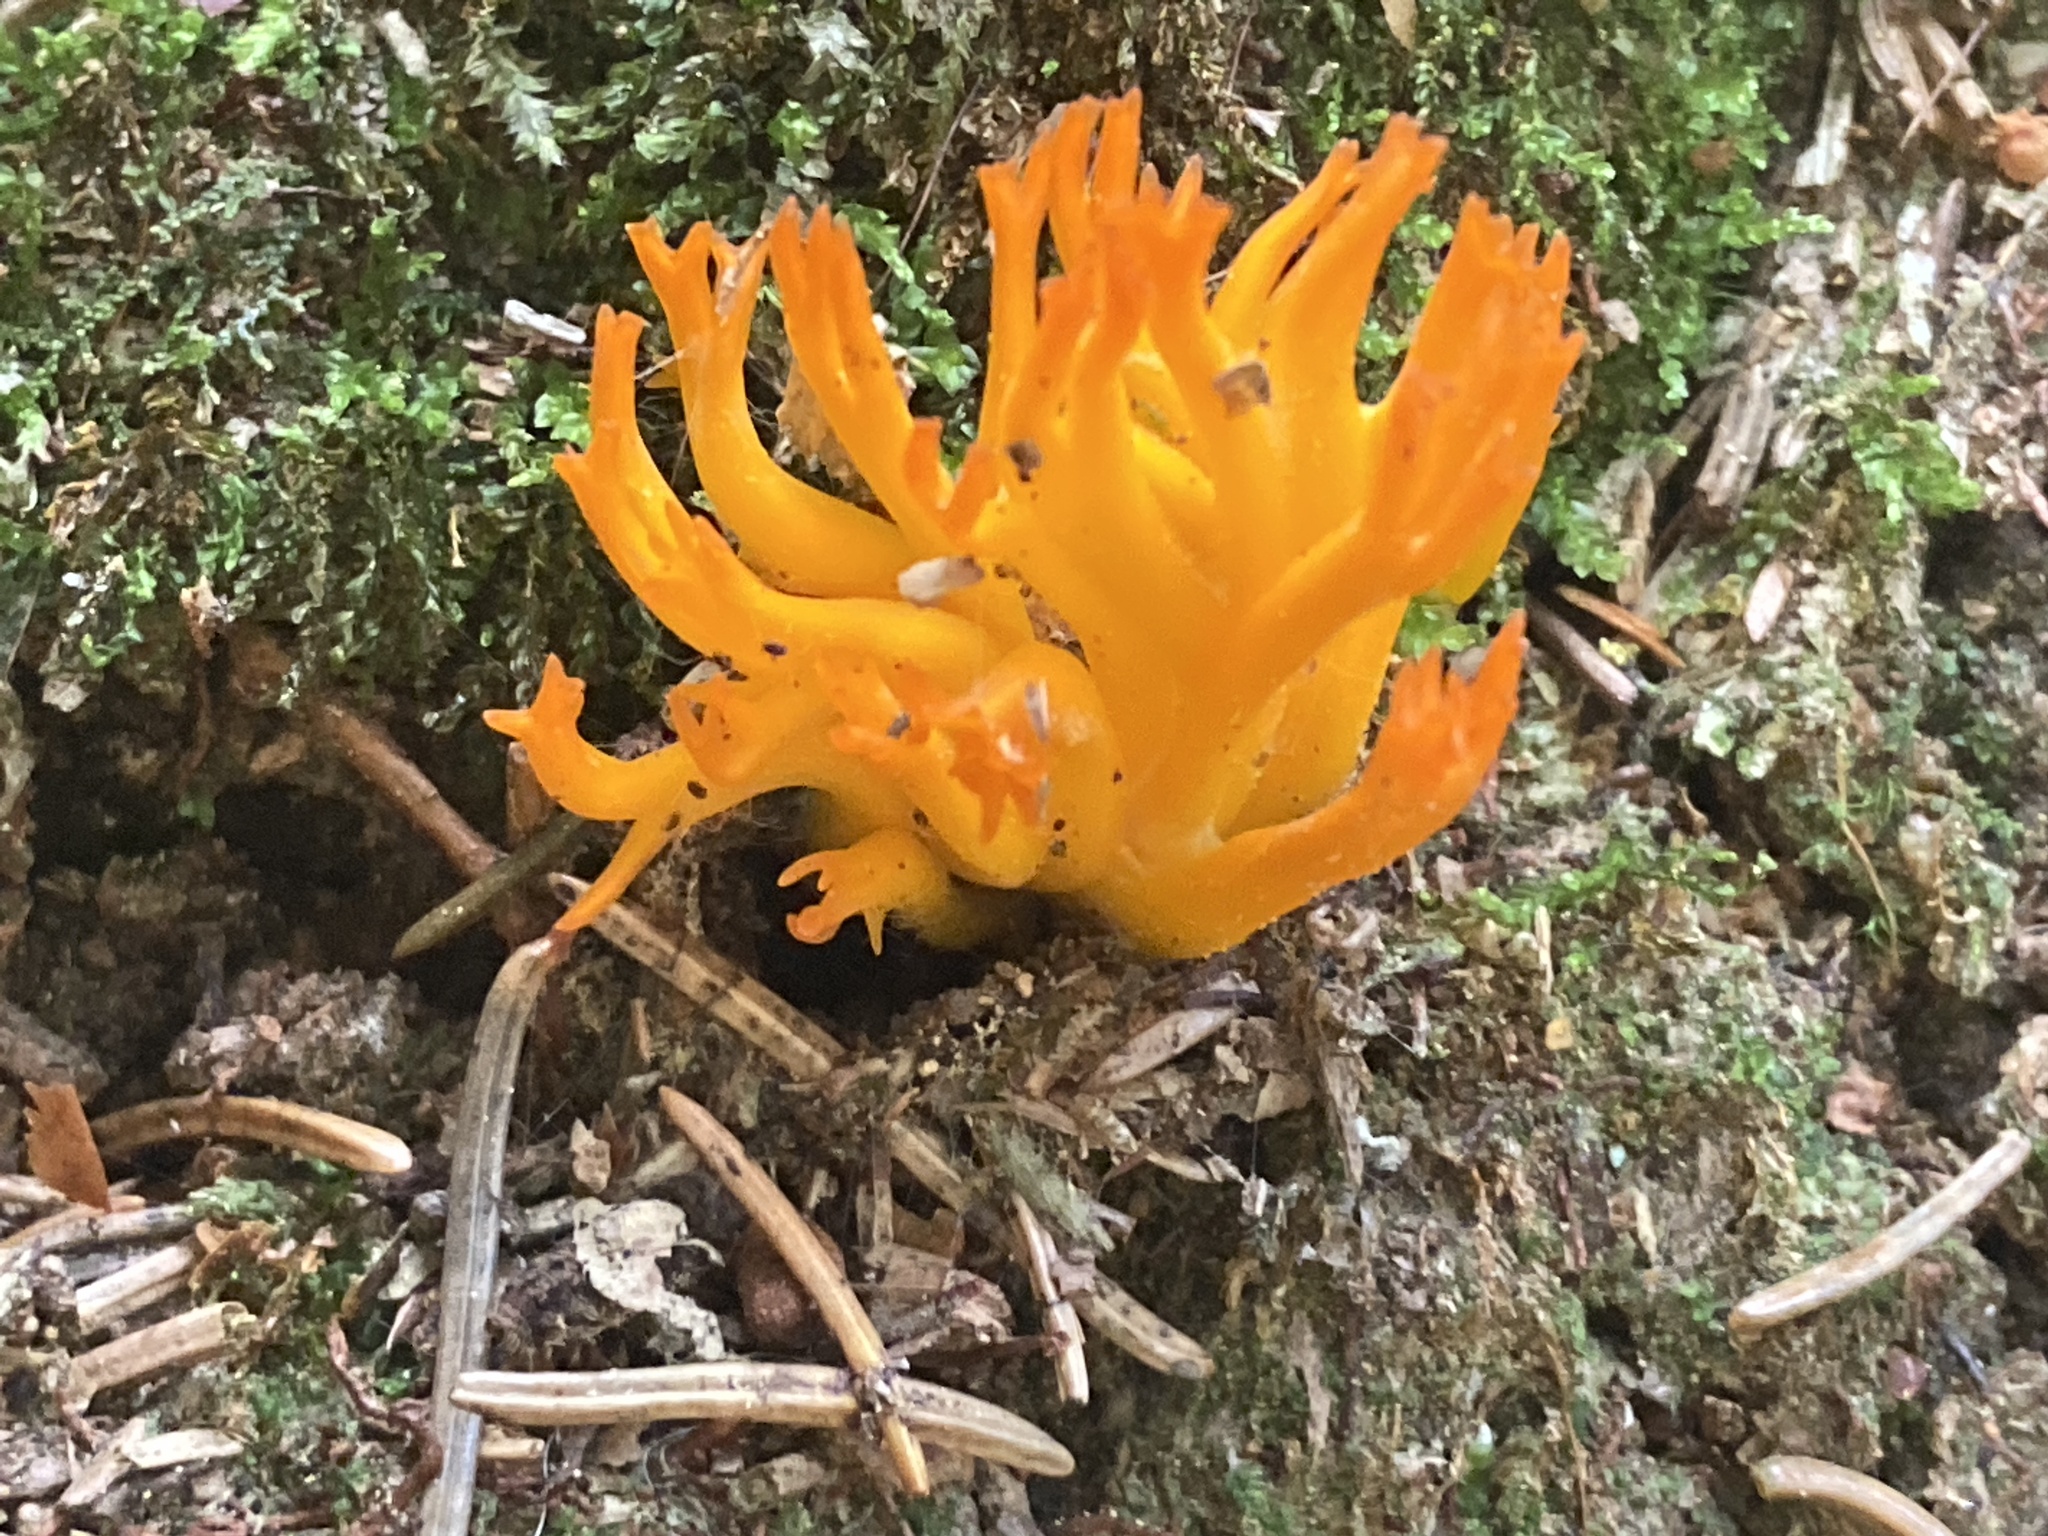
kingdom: Fungi
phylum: Basidiomycota
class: Dacrymycetes
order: Dacrymycetales
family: Dacrymycetaceae
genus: Calocera
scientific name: Calocera viscosa
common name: Yellow stagshorn
